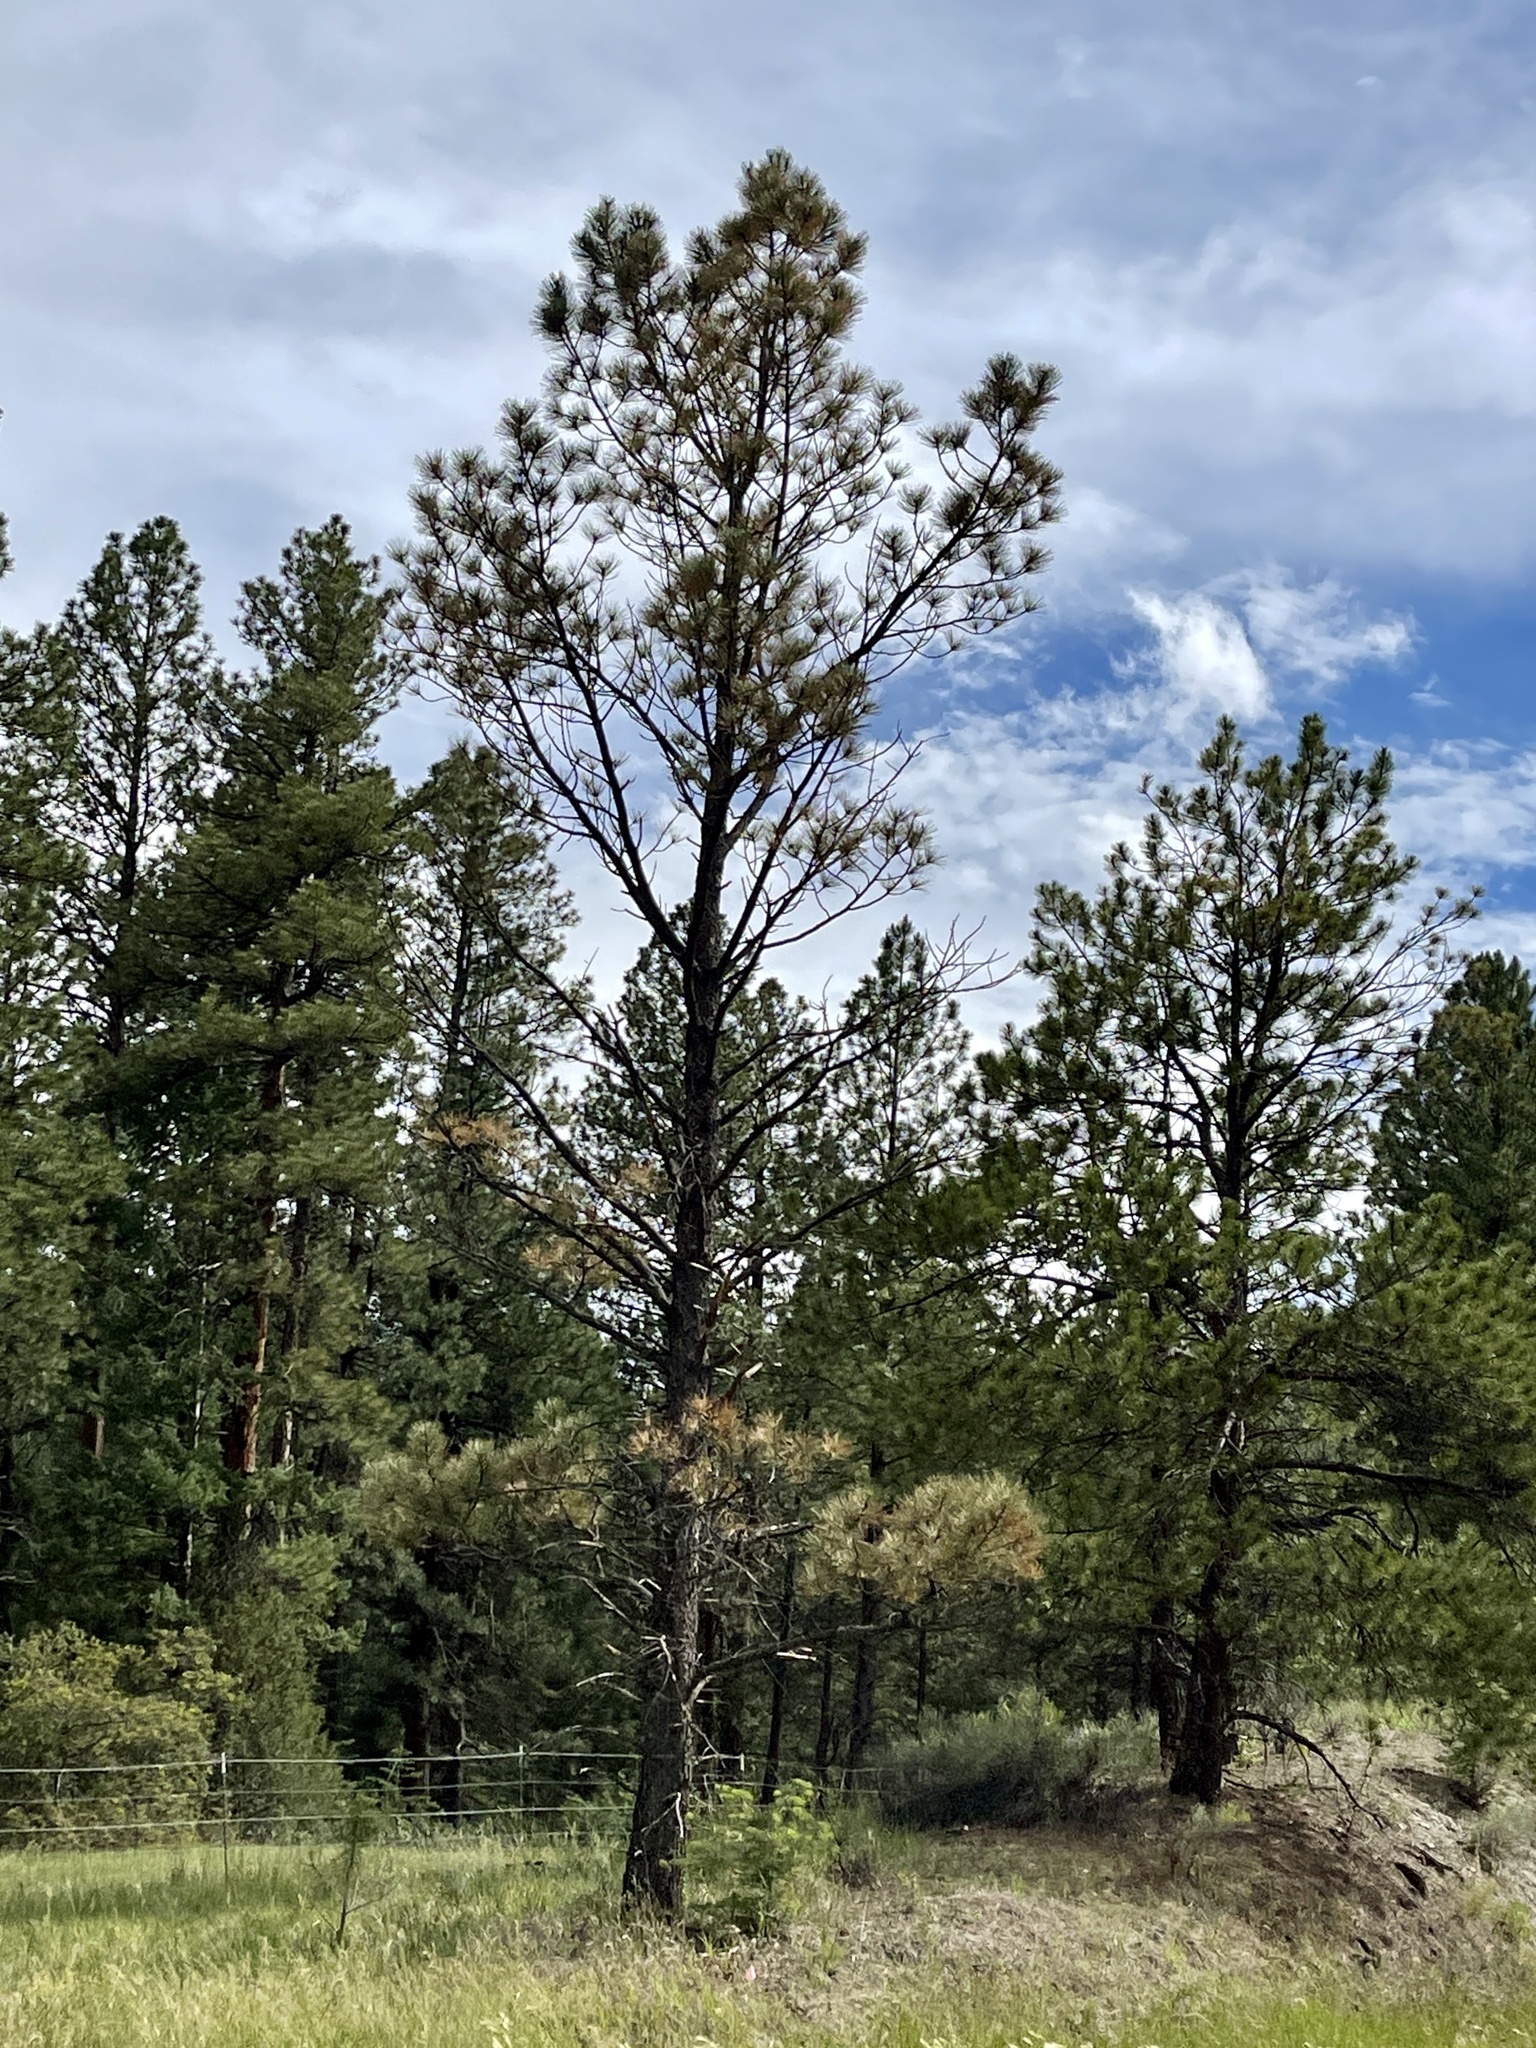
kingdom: Plantae
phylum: Tracheophyta
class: Pinopsida
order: Pinales
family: Pinaceae
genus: Pinus
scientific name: Pinus ponderosa
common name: Western yellow-pine
